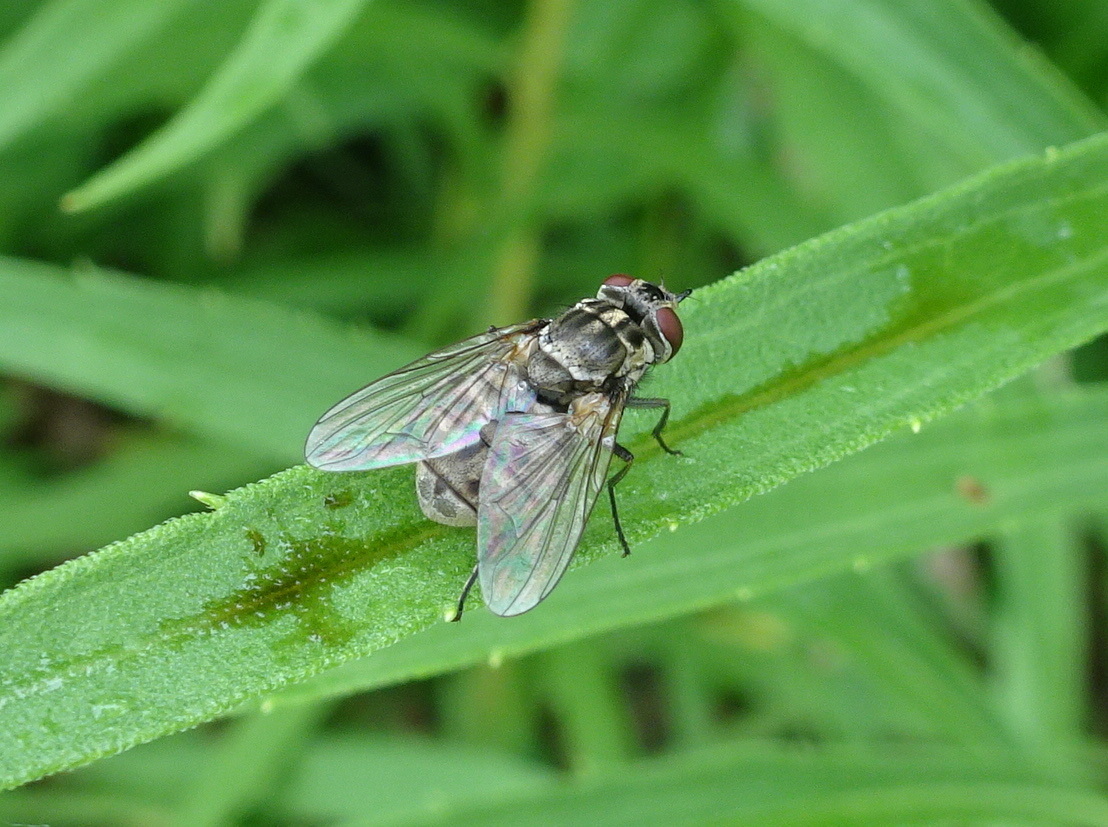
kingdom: Animalia
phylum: Arthropoda
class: Insecta
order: Diptera
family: Muscidae
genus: Stomoxys
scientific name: Stomoxys calcitrans
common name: Stable fly
